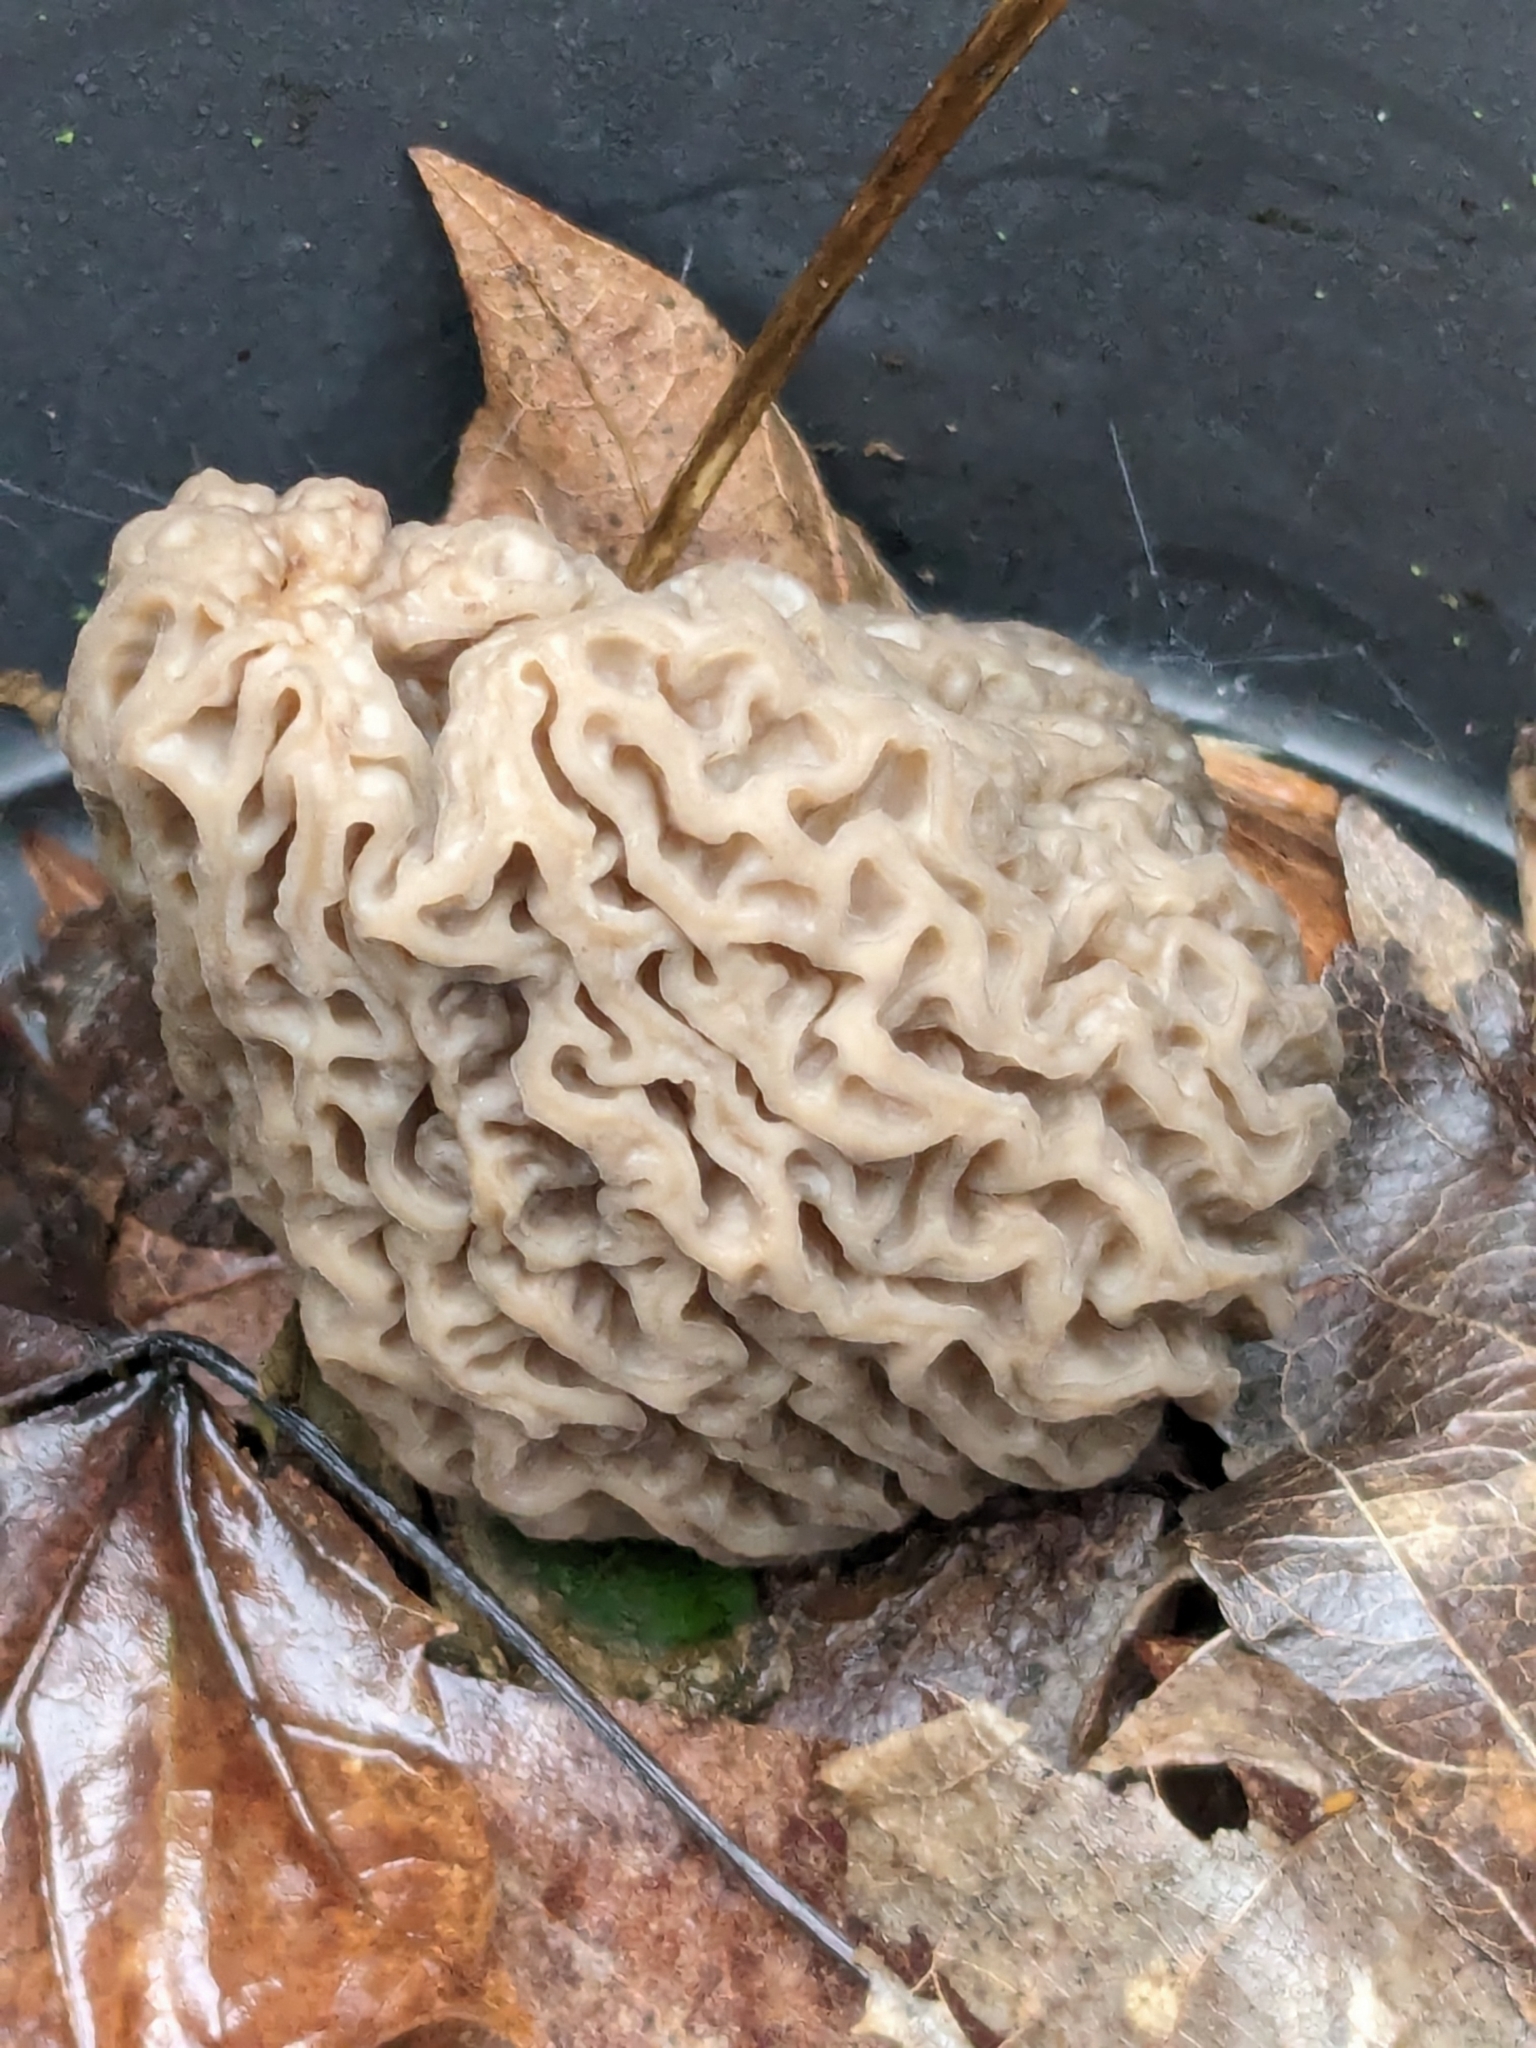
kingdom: Fungi
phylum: Ascomycota
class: Pezizomycetes
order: Pezizales
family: Morchellaceae
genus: Morchella
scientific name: Morchella
